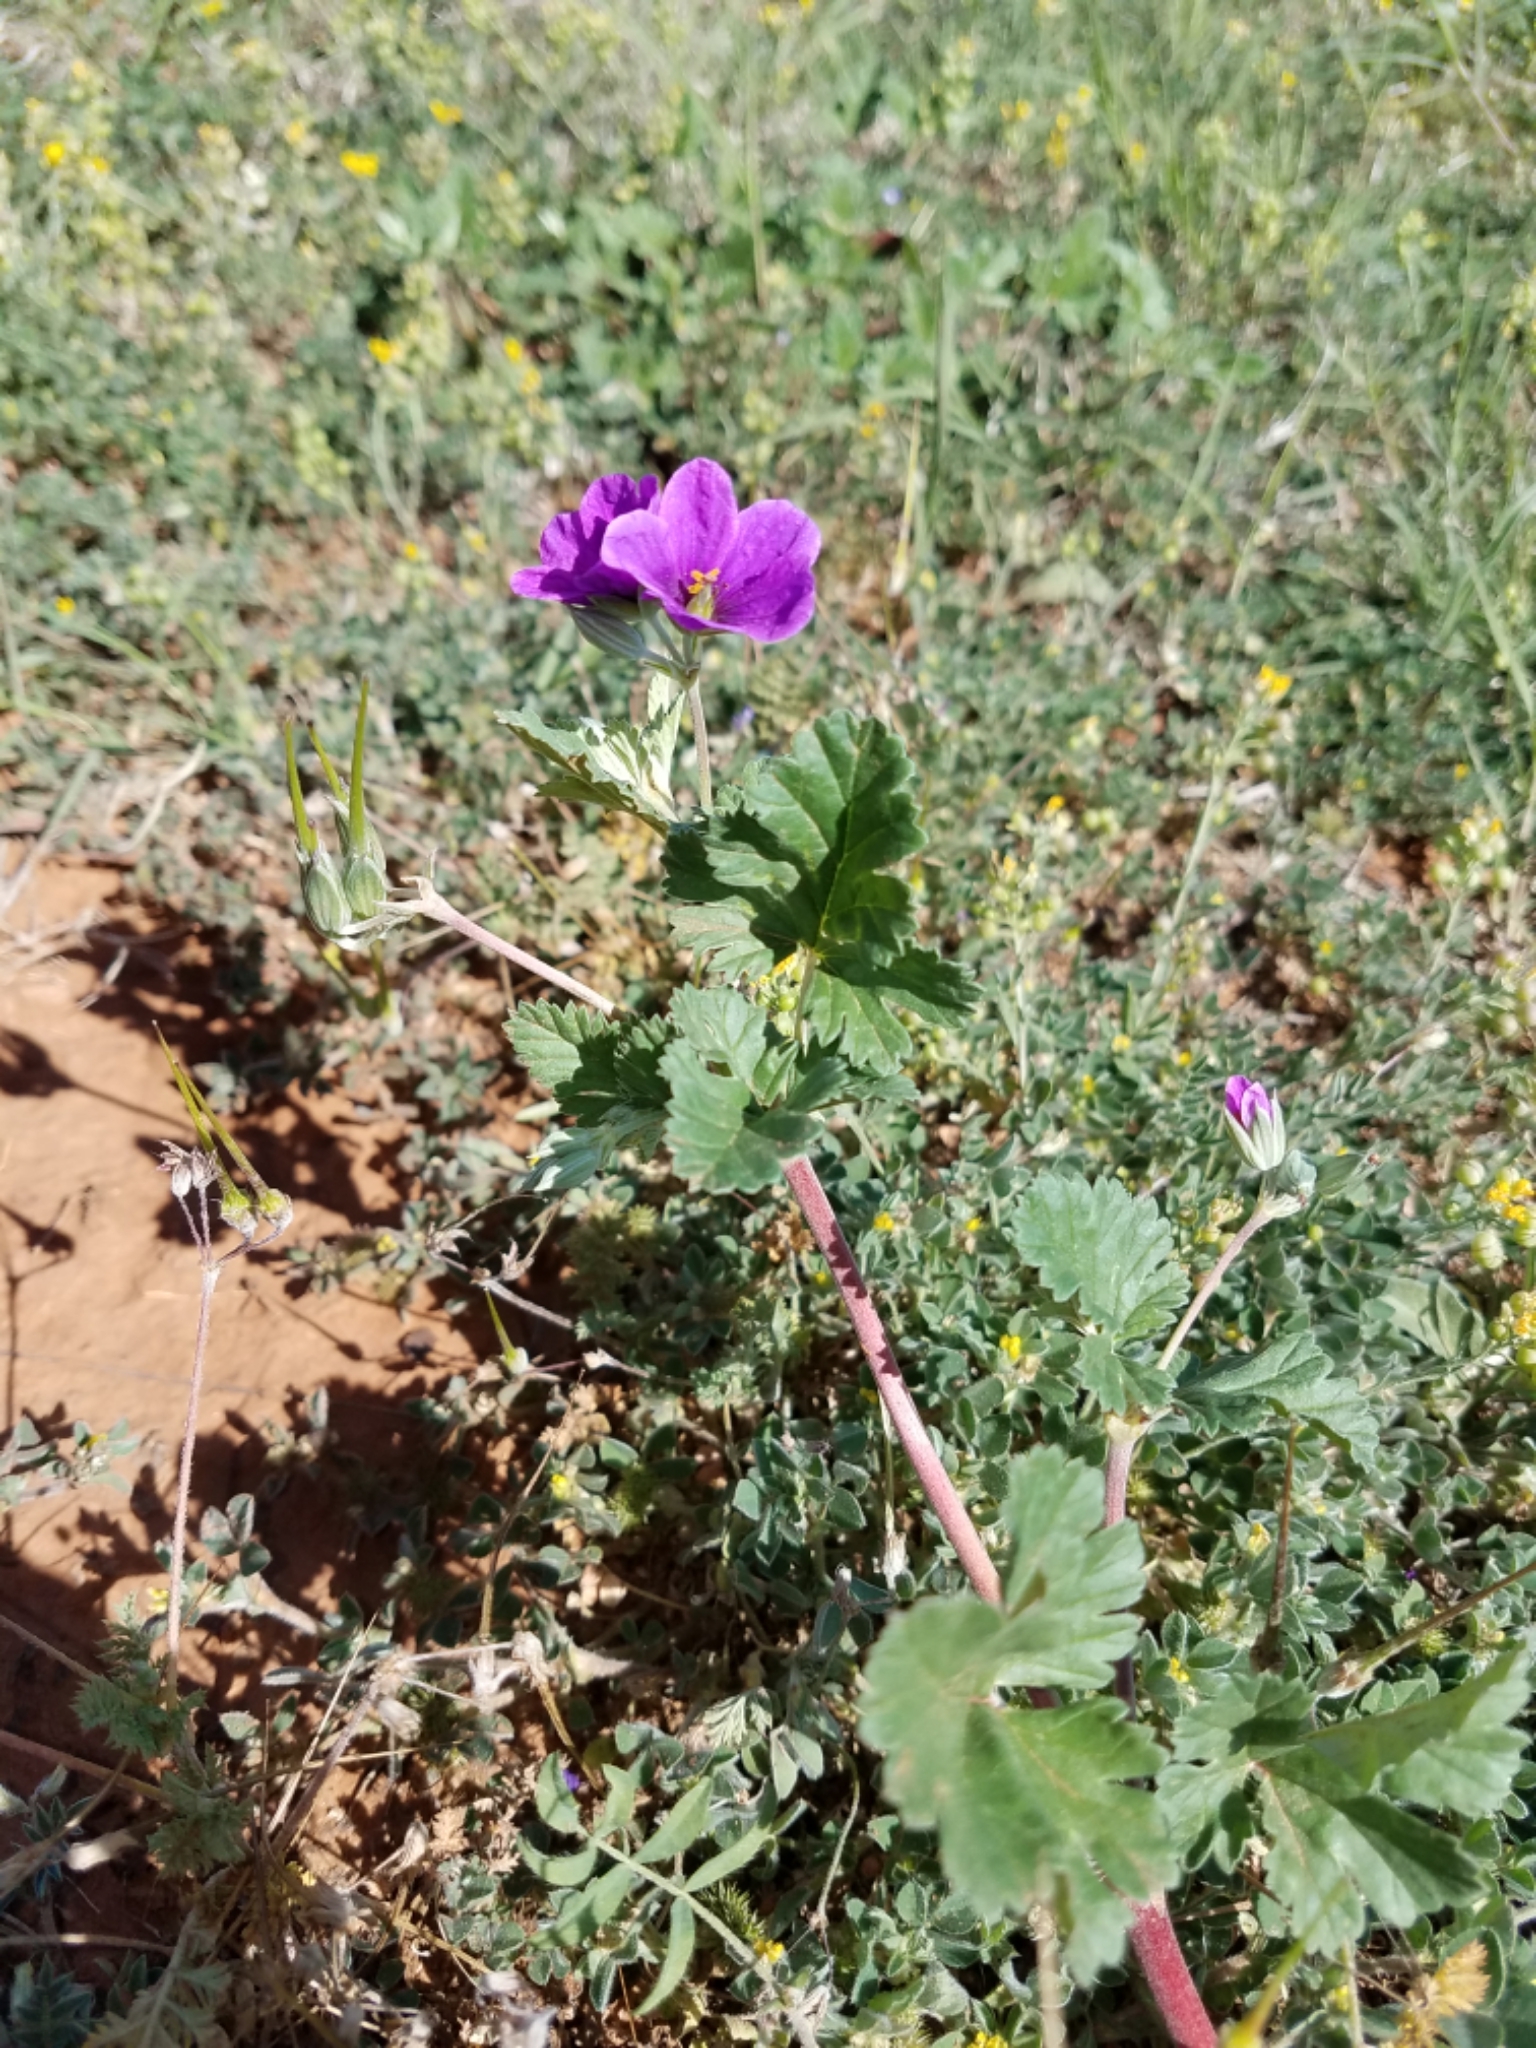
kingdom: Plantae
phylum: Tracheophyta
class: Magnoliopsida
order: Geraniales
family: Geraniaceae
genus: Erodium
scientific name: Erodium texanum
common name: Texas stork's-bill
